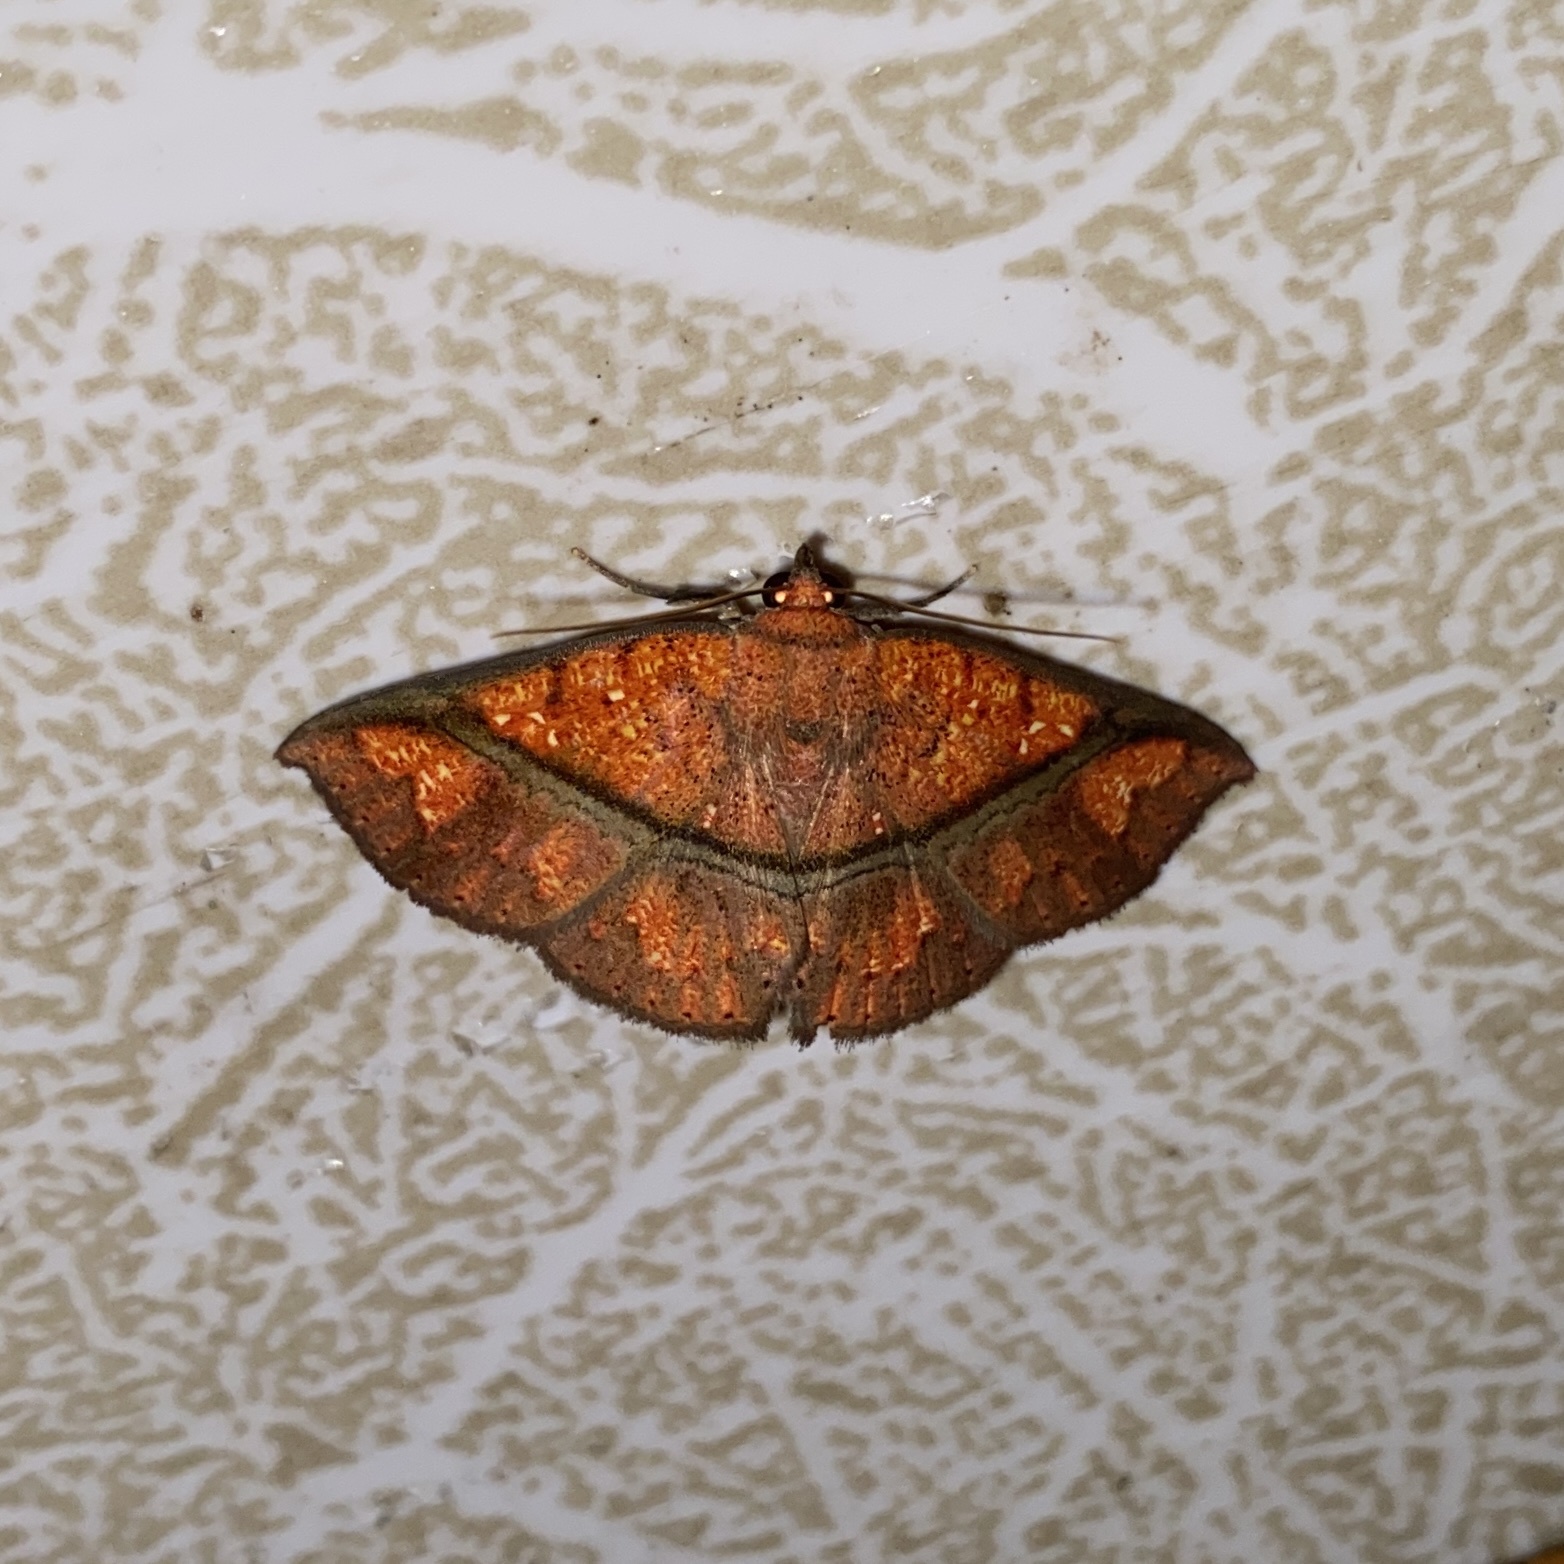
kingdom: Animalia
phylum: Arthropoda
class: Insecta
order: Lepidoptera
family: Erebidae
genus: Antiblemma
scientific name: Antiblemma subrutilans
